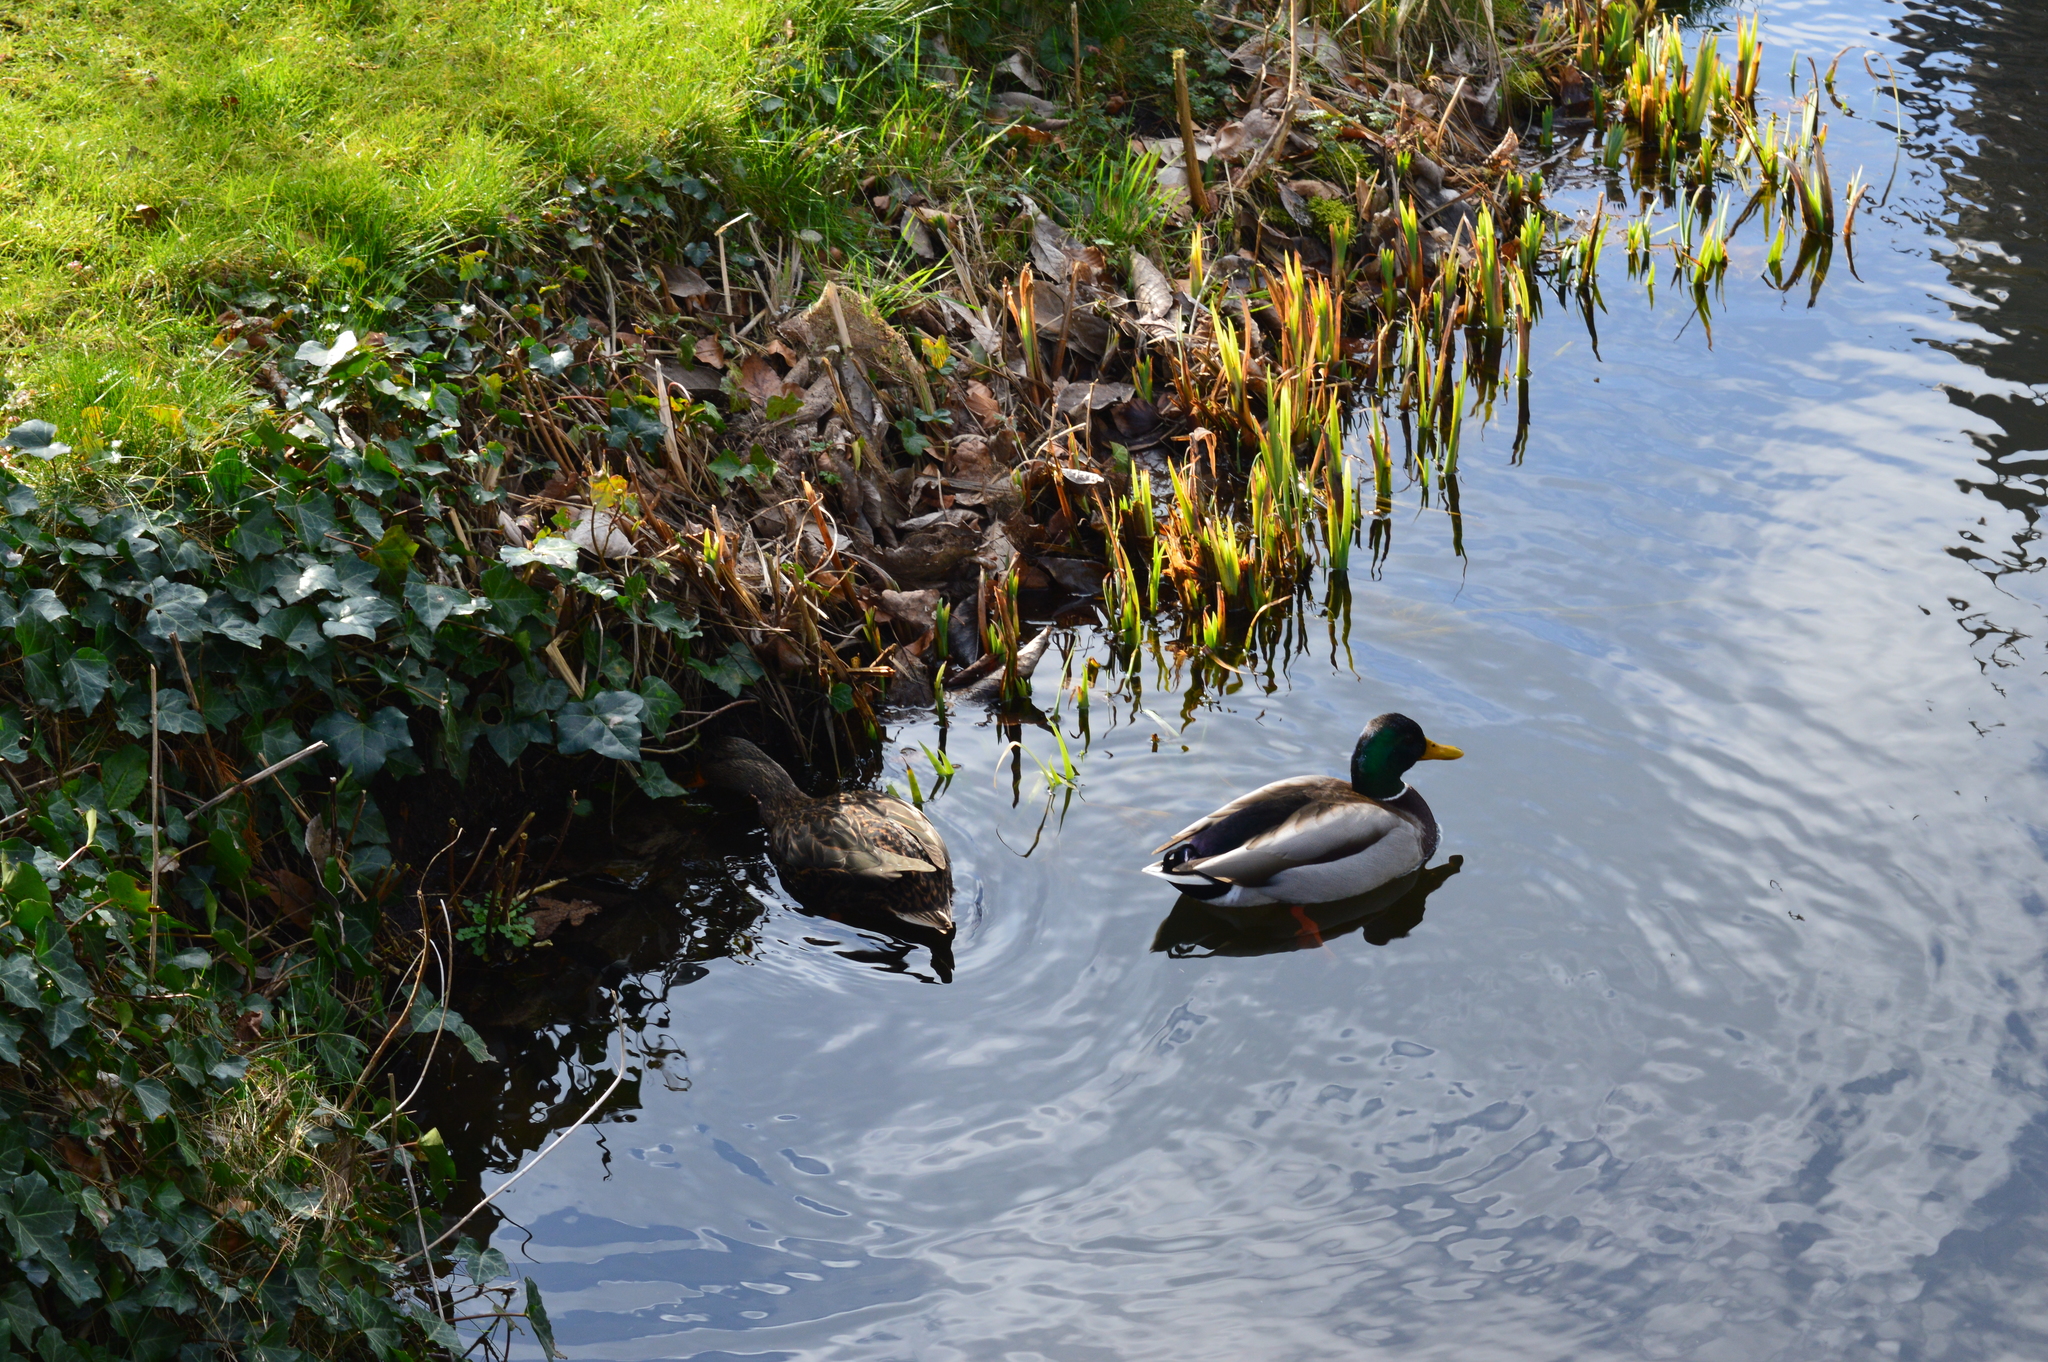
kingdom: Animalia
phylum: Chordata
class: Aves
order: Anseriformes
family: Anatidae
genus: Anas
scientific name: Anas platyrhynchos
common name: Mallard
